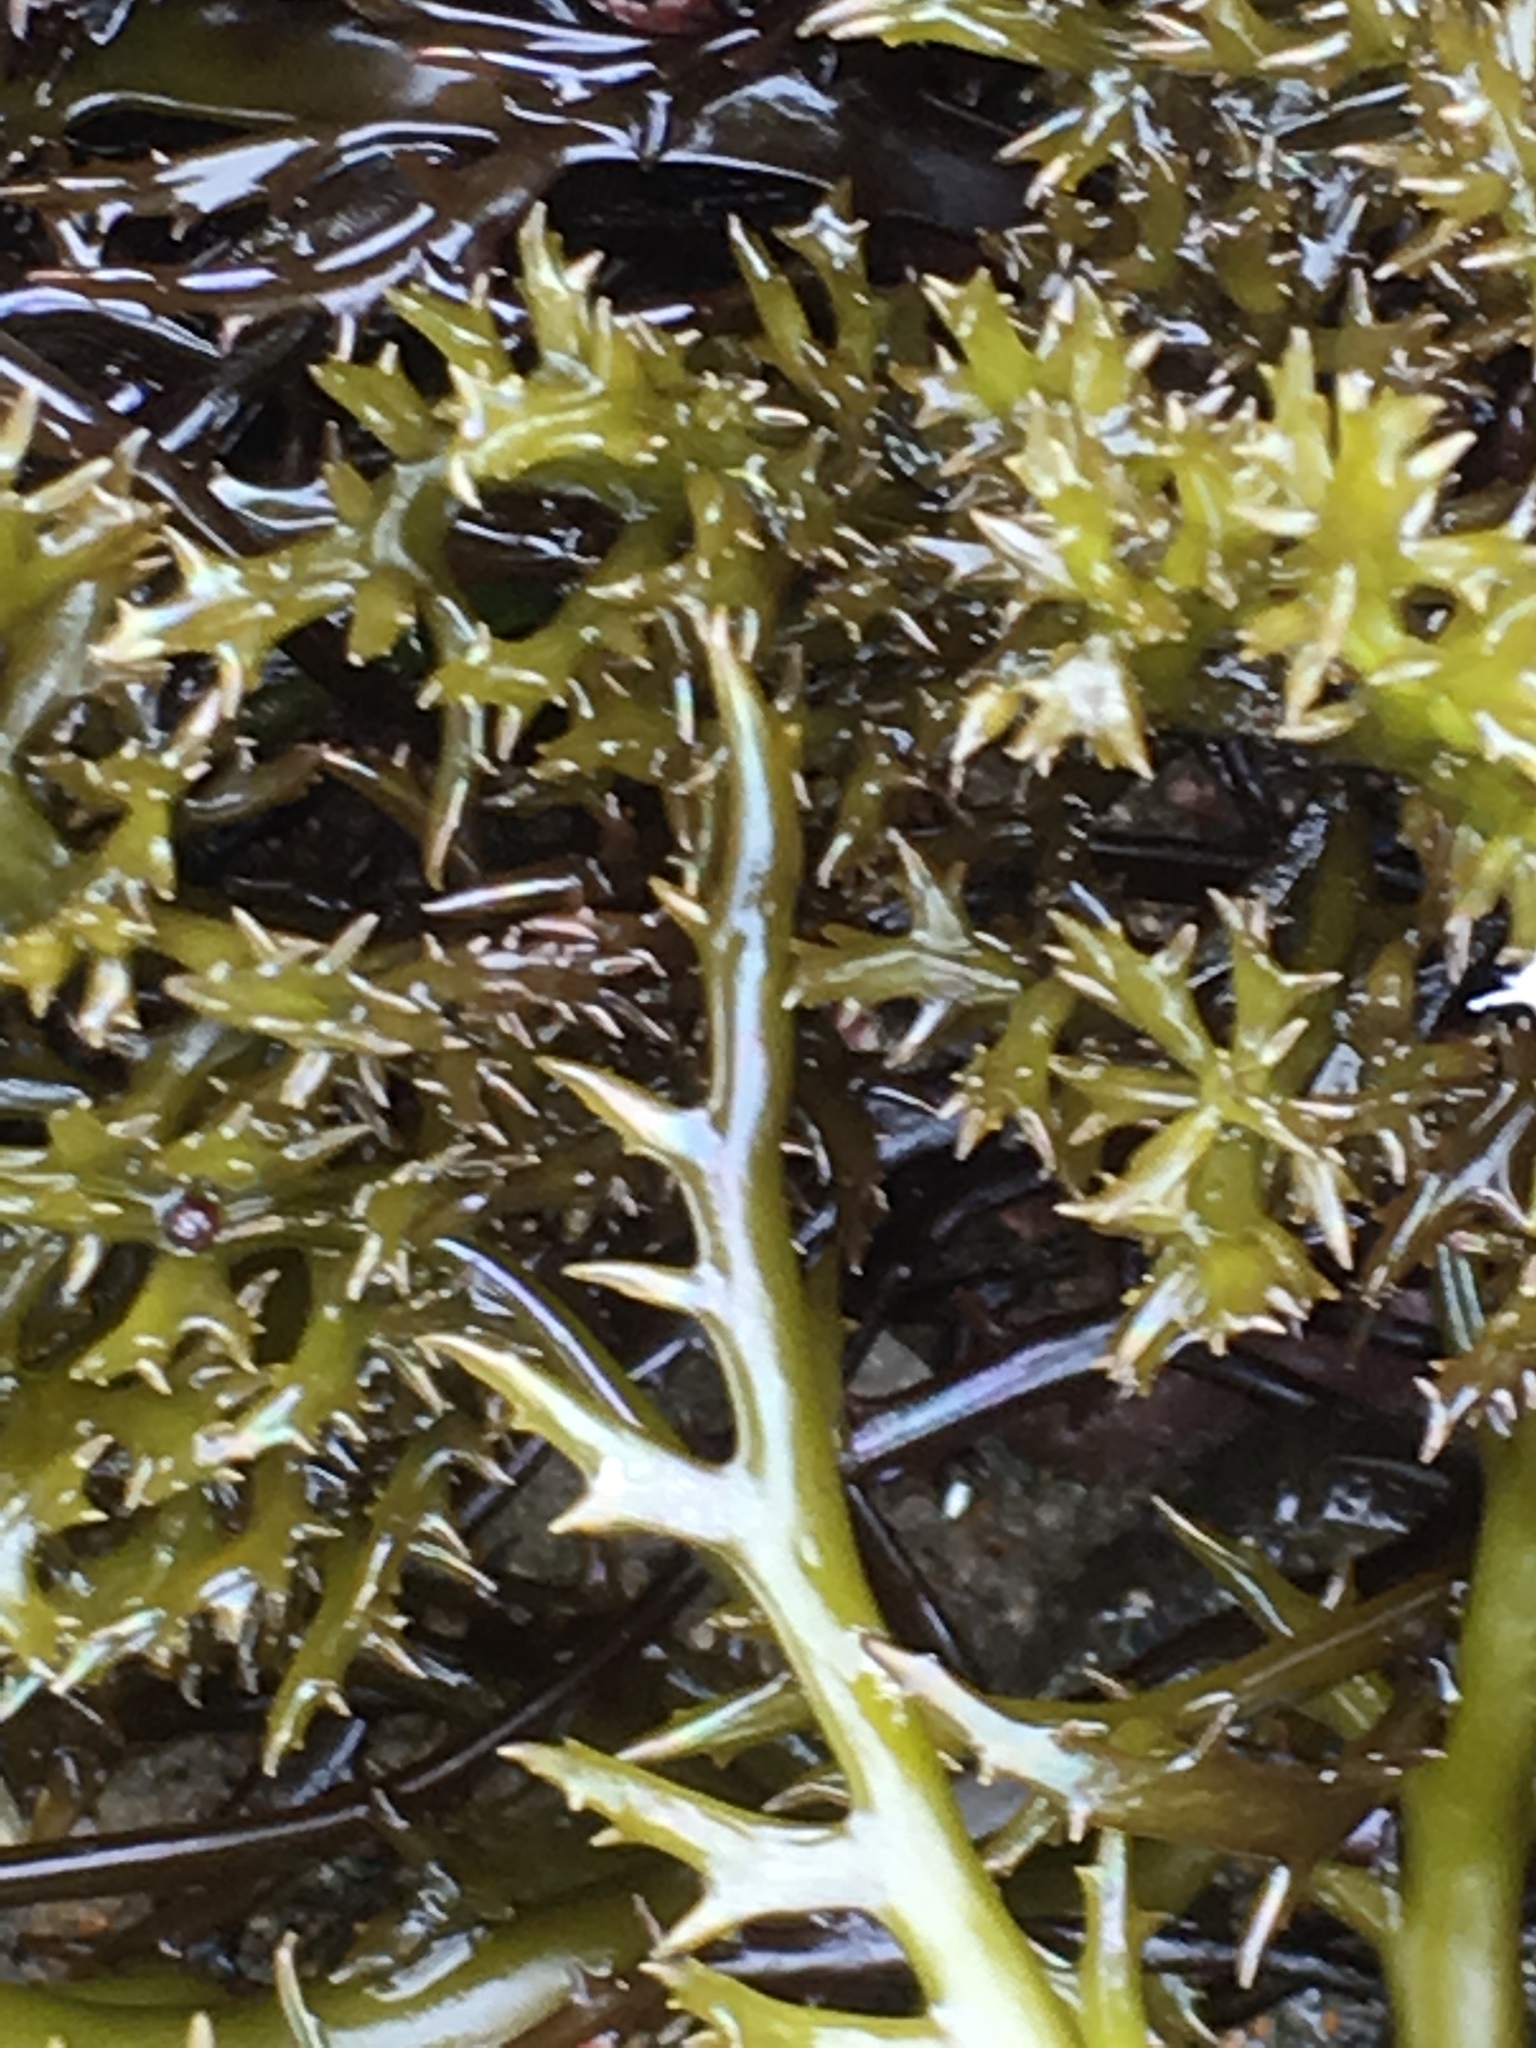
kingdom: Plantae
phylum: Rhodophyta
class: Florideophyceae
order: Gigartinales
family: Gigartinaceae
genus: Chondracanthus
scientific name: Chondracanthus canaliculatus
